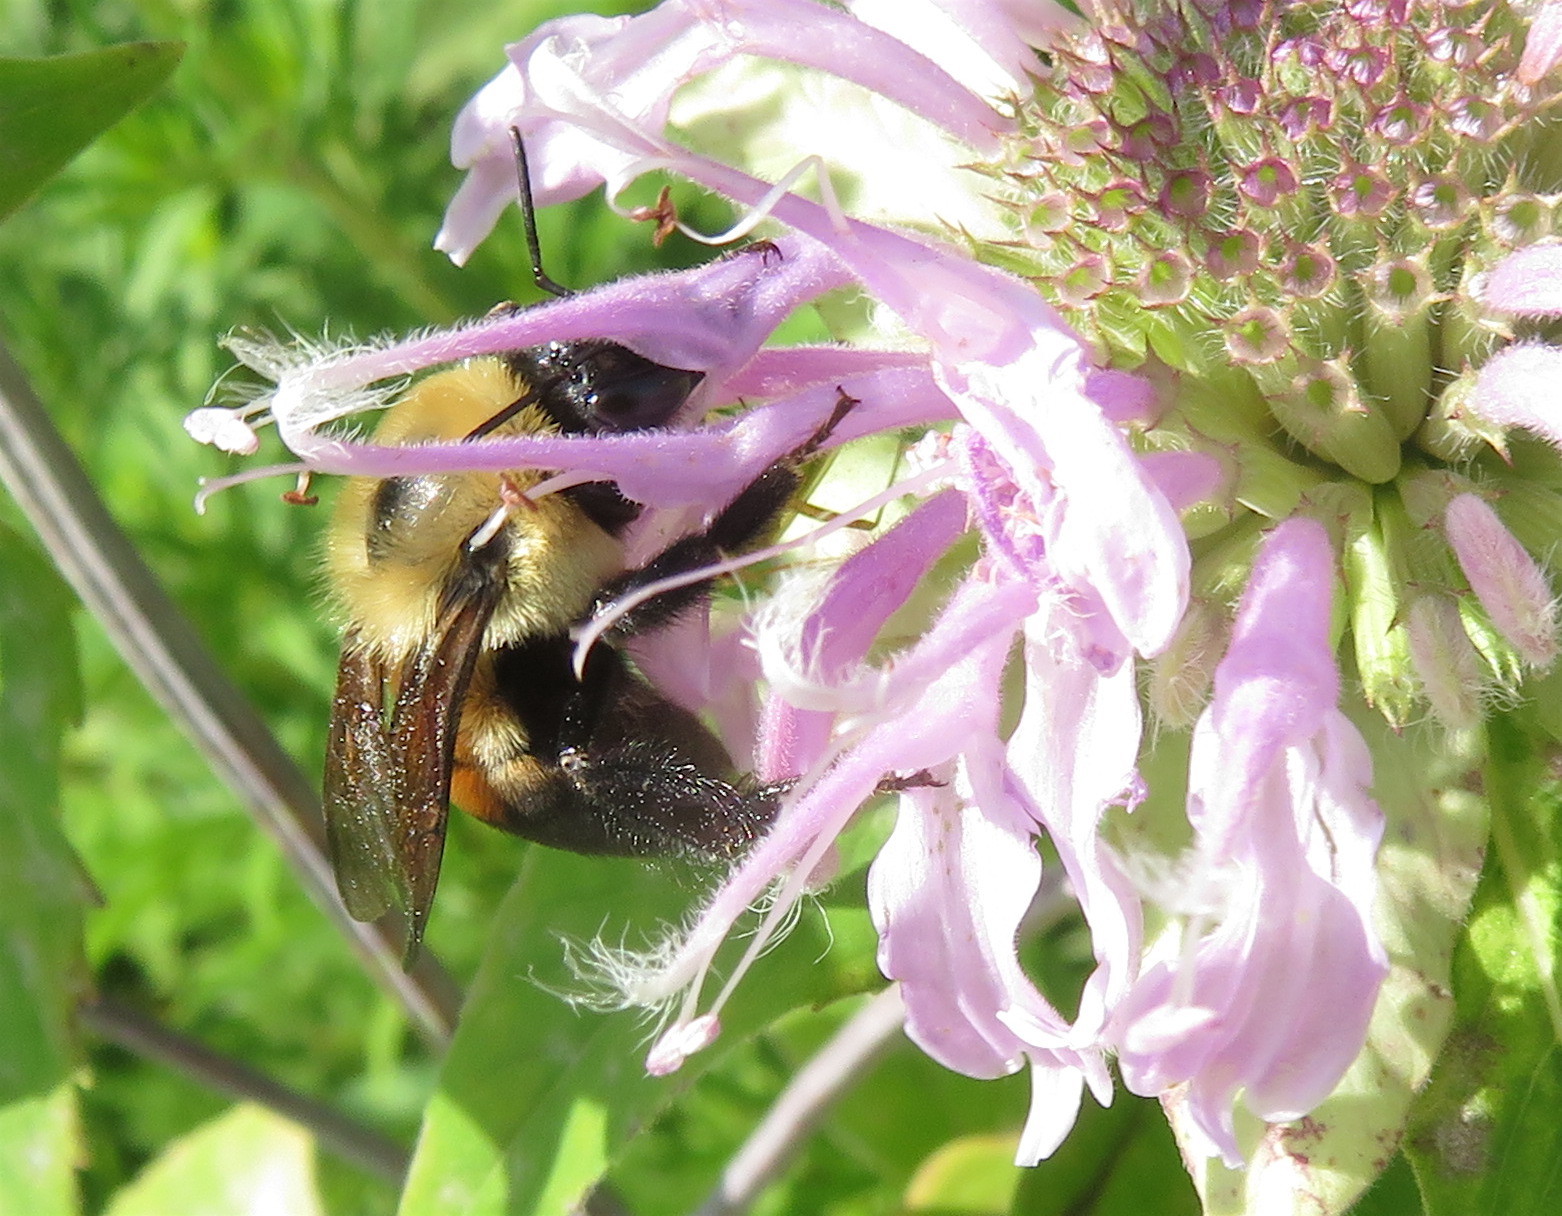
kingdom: Animalia
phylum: Arthropoda
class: Insecta
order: Hymenoptera
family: Apidae
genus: Bombus
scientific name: Bombus griseocollis
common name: Brown-belted bumble bee
